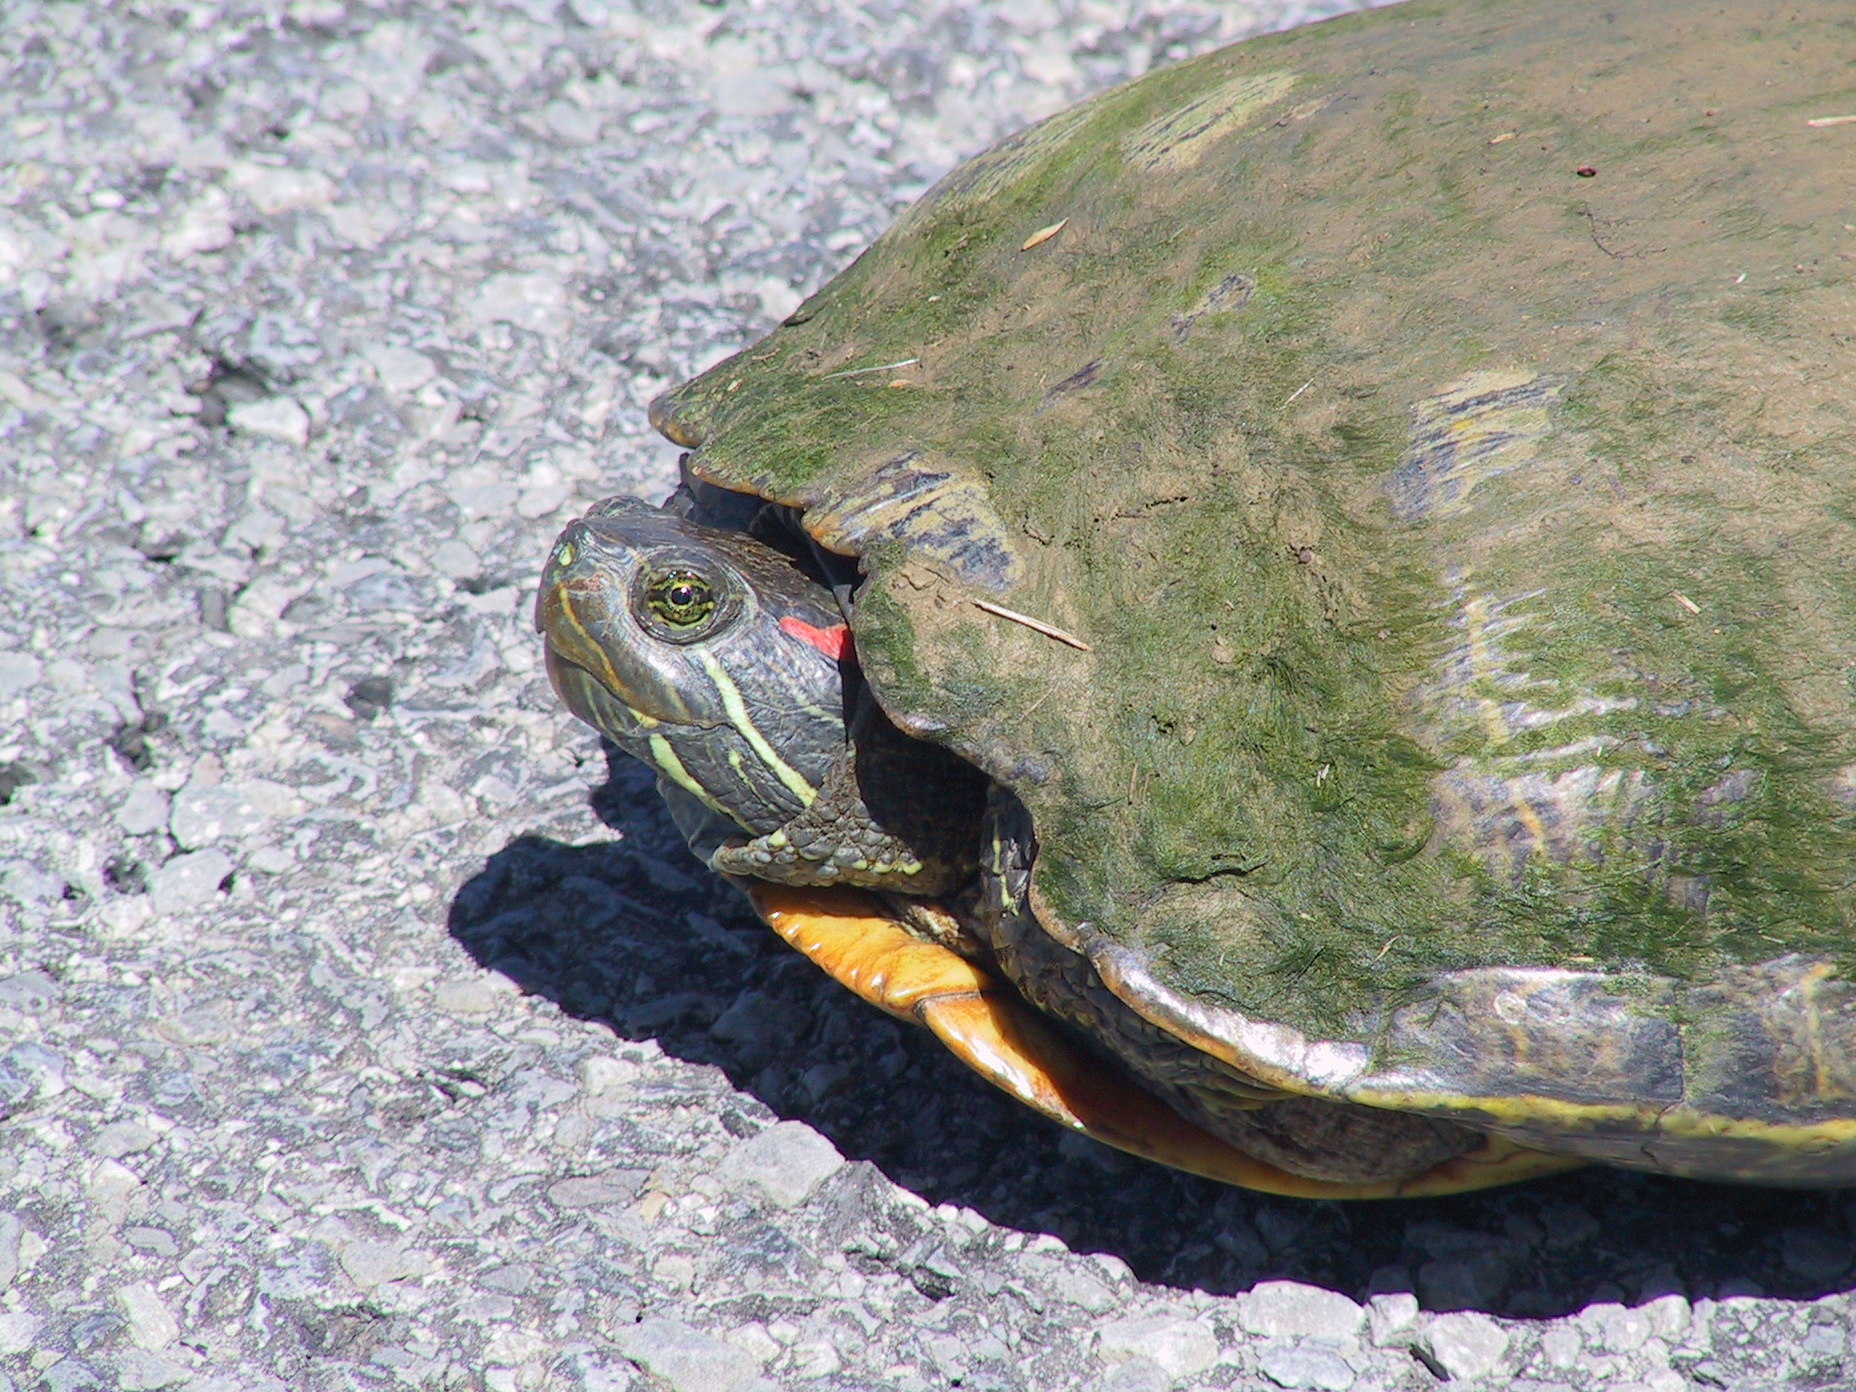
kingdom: Animalia
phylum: Chordata
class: Testudines
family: Emydidae
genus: Trachemys
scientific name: Trachemys scripta
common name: Slider
